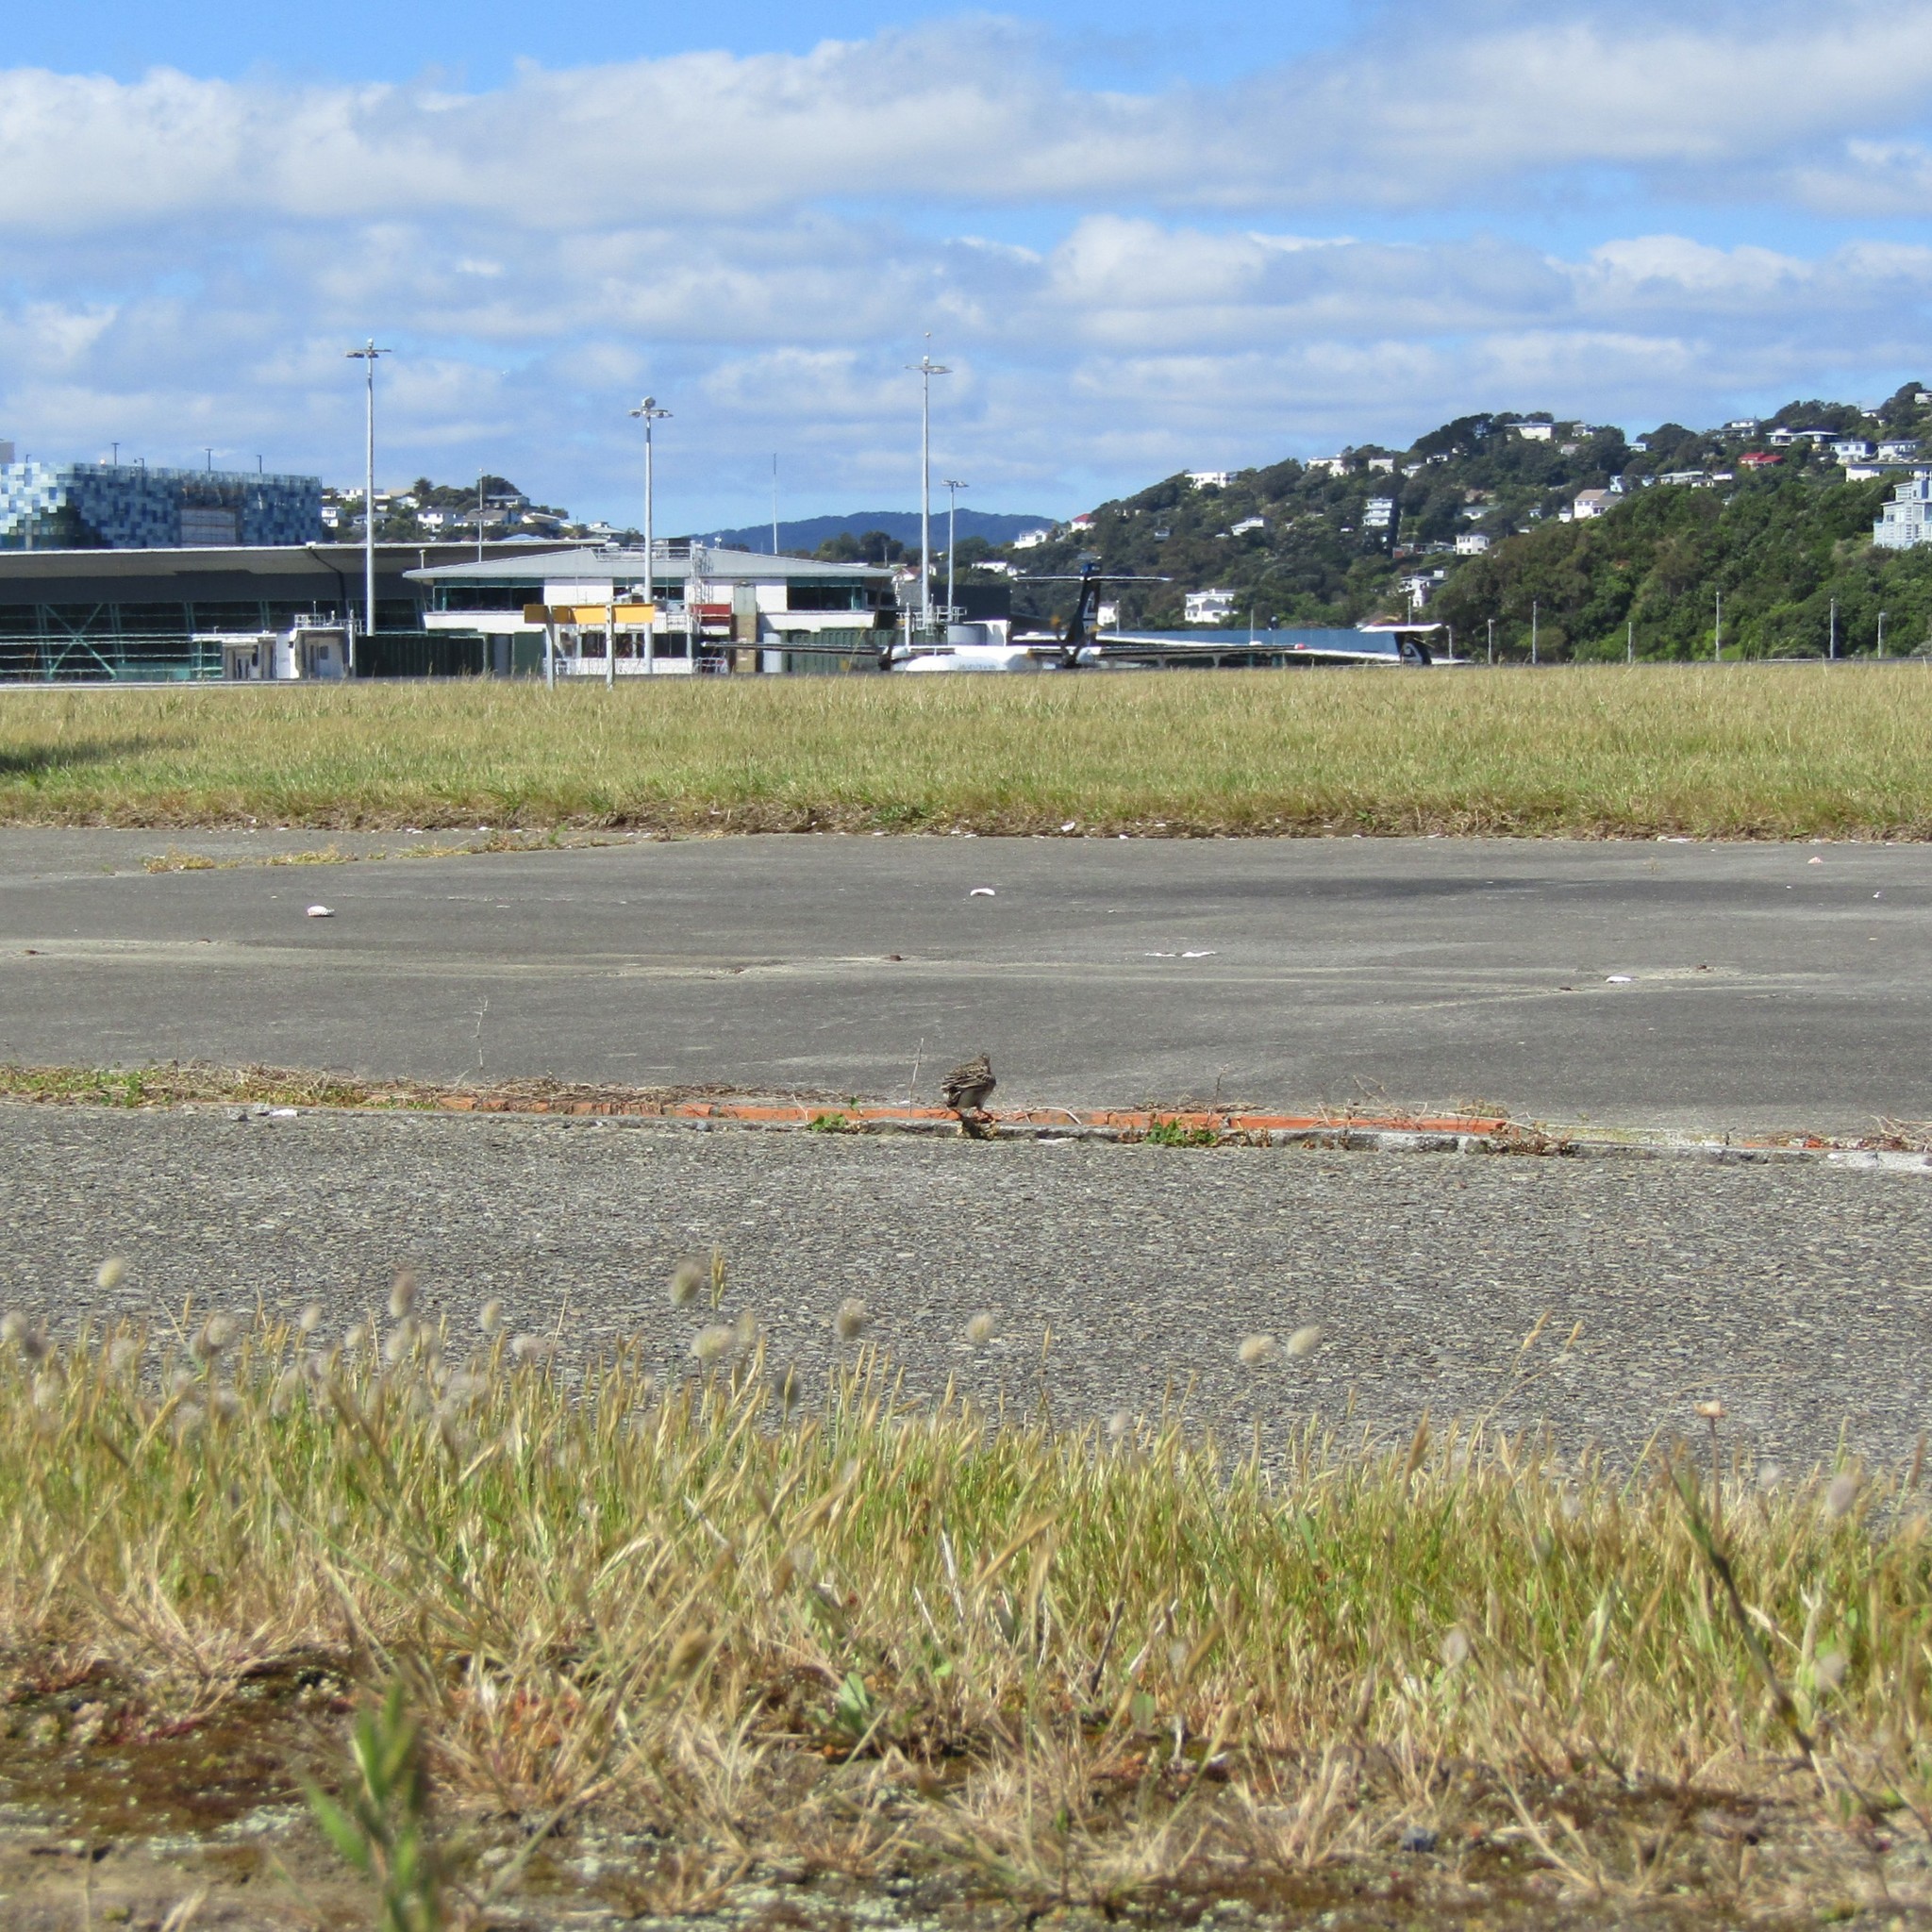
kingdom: Animalia
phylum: Chordata
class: Aves
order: Passeriformes
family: Alaudidae
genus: Alauda
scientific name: Alauda arvensis
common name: Eurasian skylark
